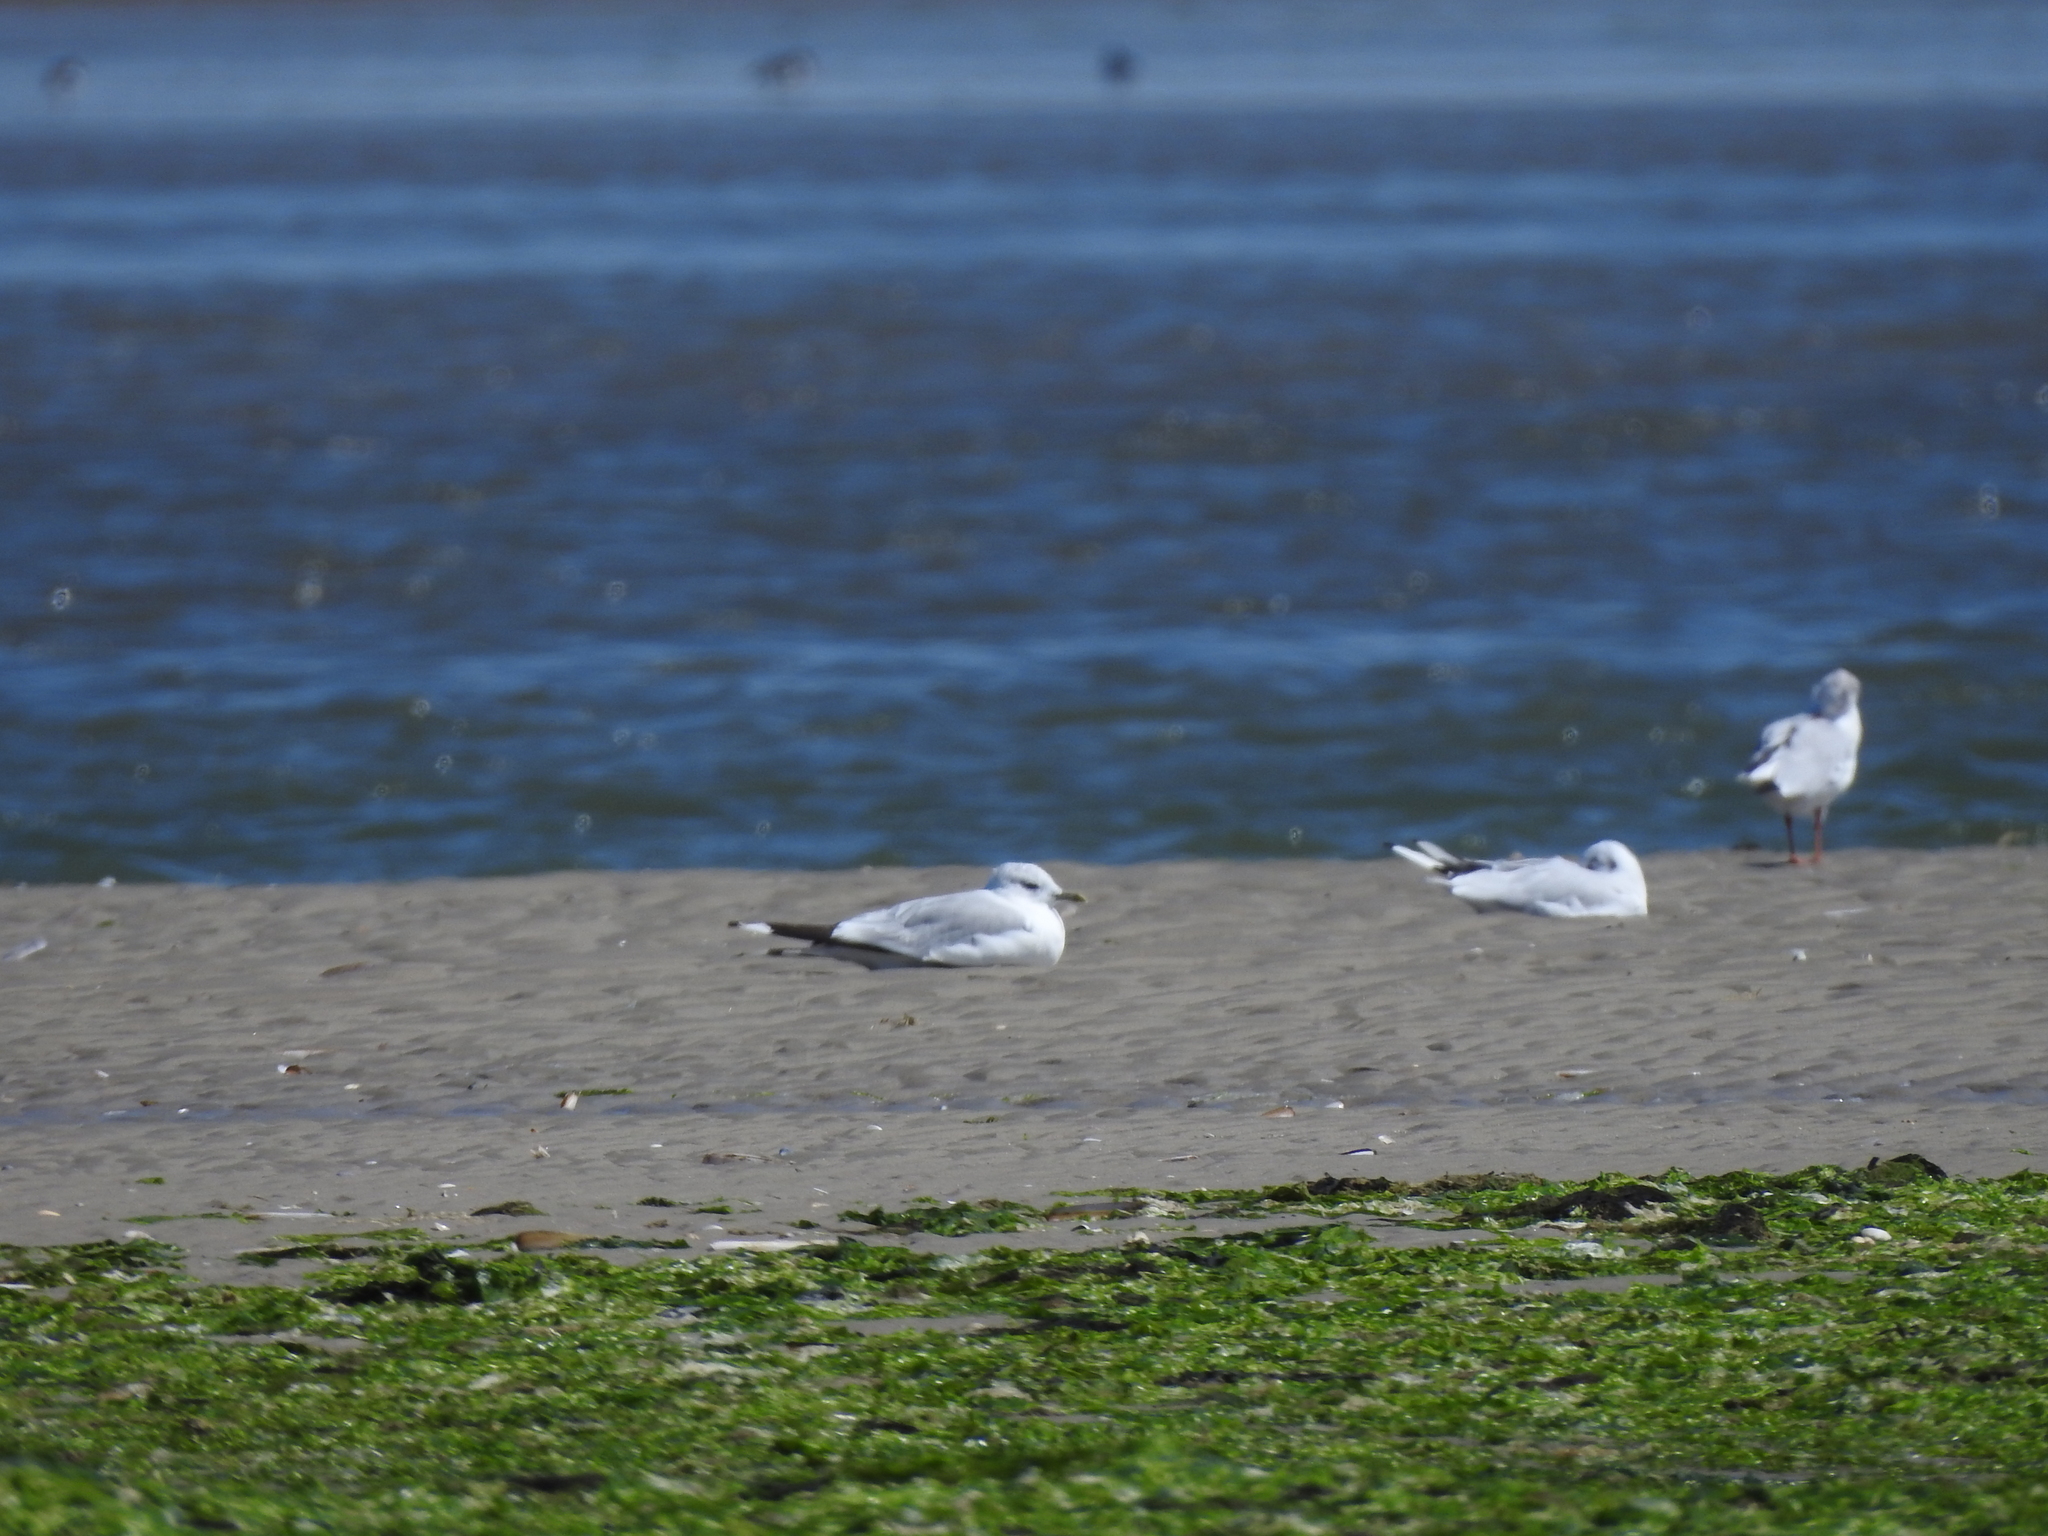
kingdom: Animalia
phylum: Chordata
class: Aves
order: Charadriiformes
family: Laridae
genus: Larus
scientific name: Larus canus
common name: Mew gull
